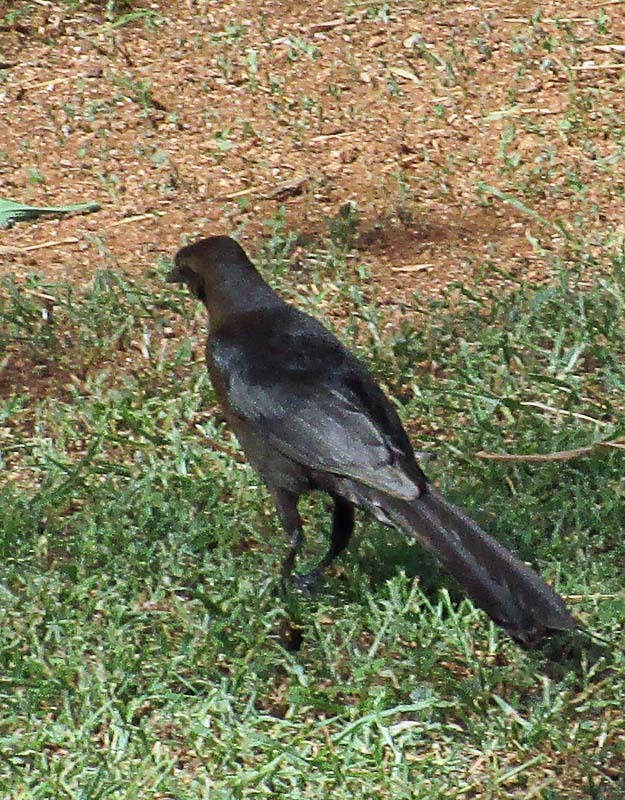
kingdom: Animalia
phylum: Chordata
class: Aves
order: Passeriformes
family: Icteridae
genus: Quiscalus
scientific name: Quiscalus mexicanus
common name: Great-tailed grackle
